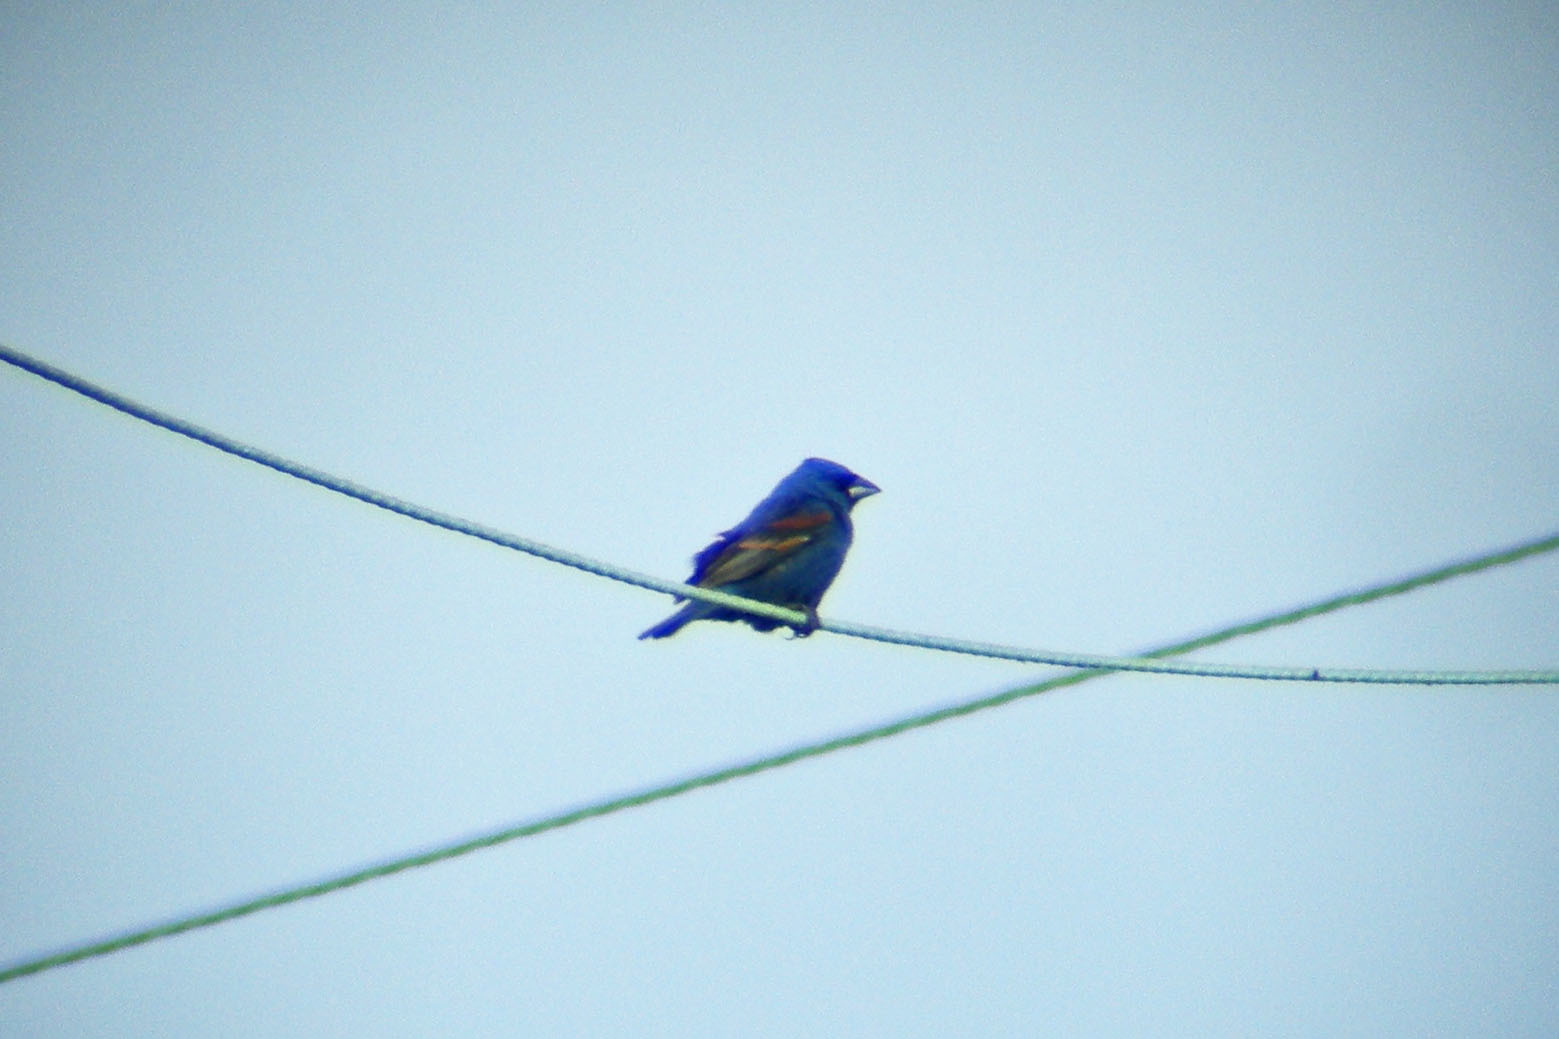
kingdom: Animalia
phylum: Chordata
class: Aves
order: Passeriformes
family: Cardinalidae
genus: Passerina
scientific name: Passerina caerulea
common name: Blue grosbeak
